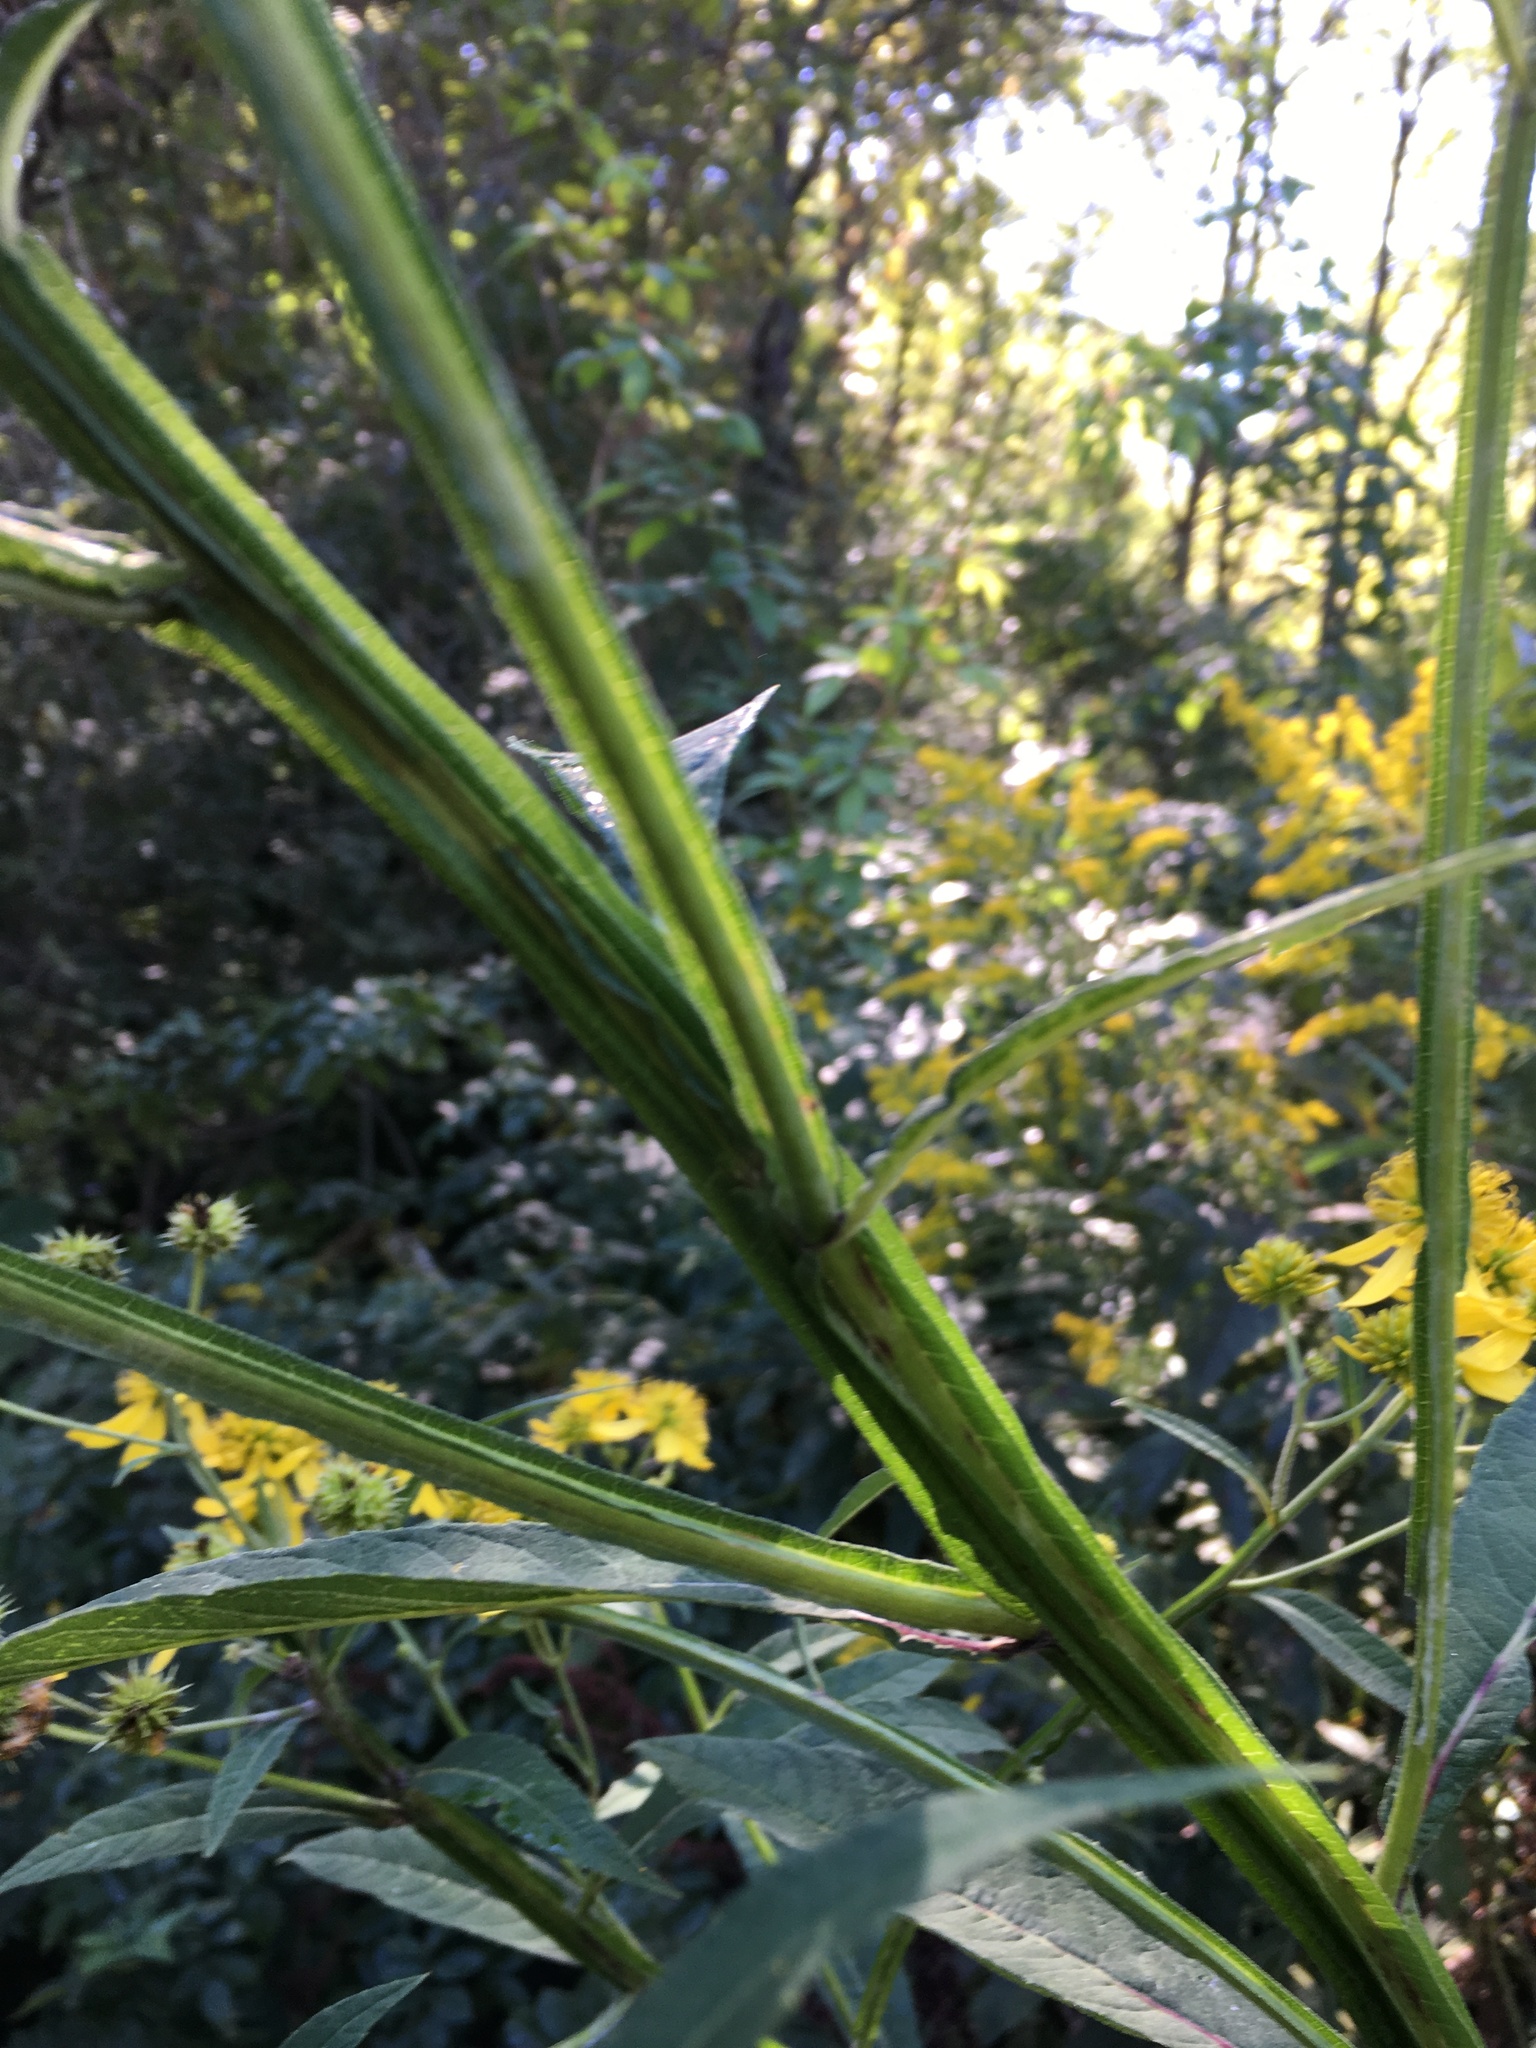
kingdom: Plantae
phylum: Tracheophyta
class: Magnoliopsida
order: Asterales
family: Asteraceae
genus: Verbesina
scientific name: Verbesina alternifolia
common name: Wingstem
